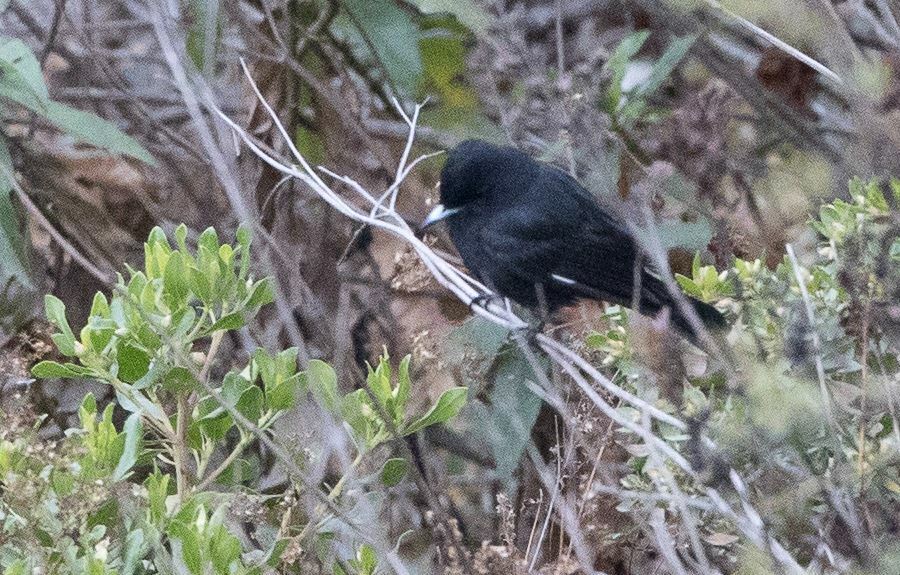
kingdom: Animalia
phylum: Chordata
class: Aves
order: Passeriformes
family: Tyrannidae
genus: Knipolegus
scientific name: Knipolegus aterrimus
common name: White-winged black tyrant
